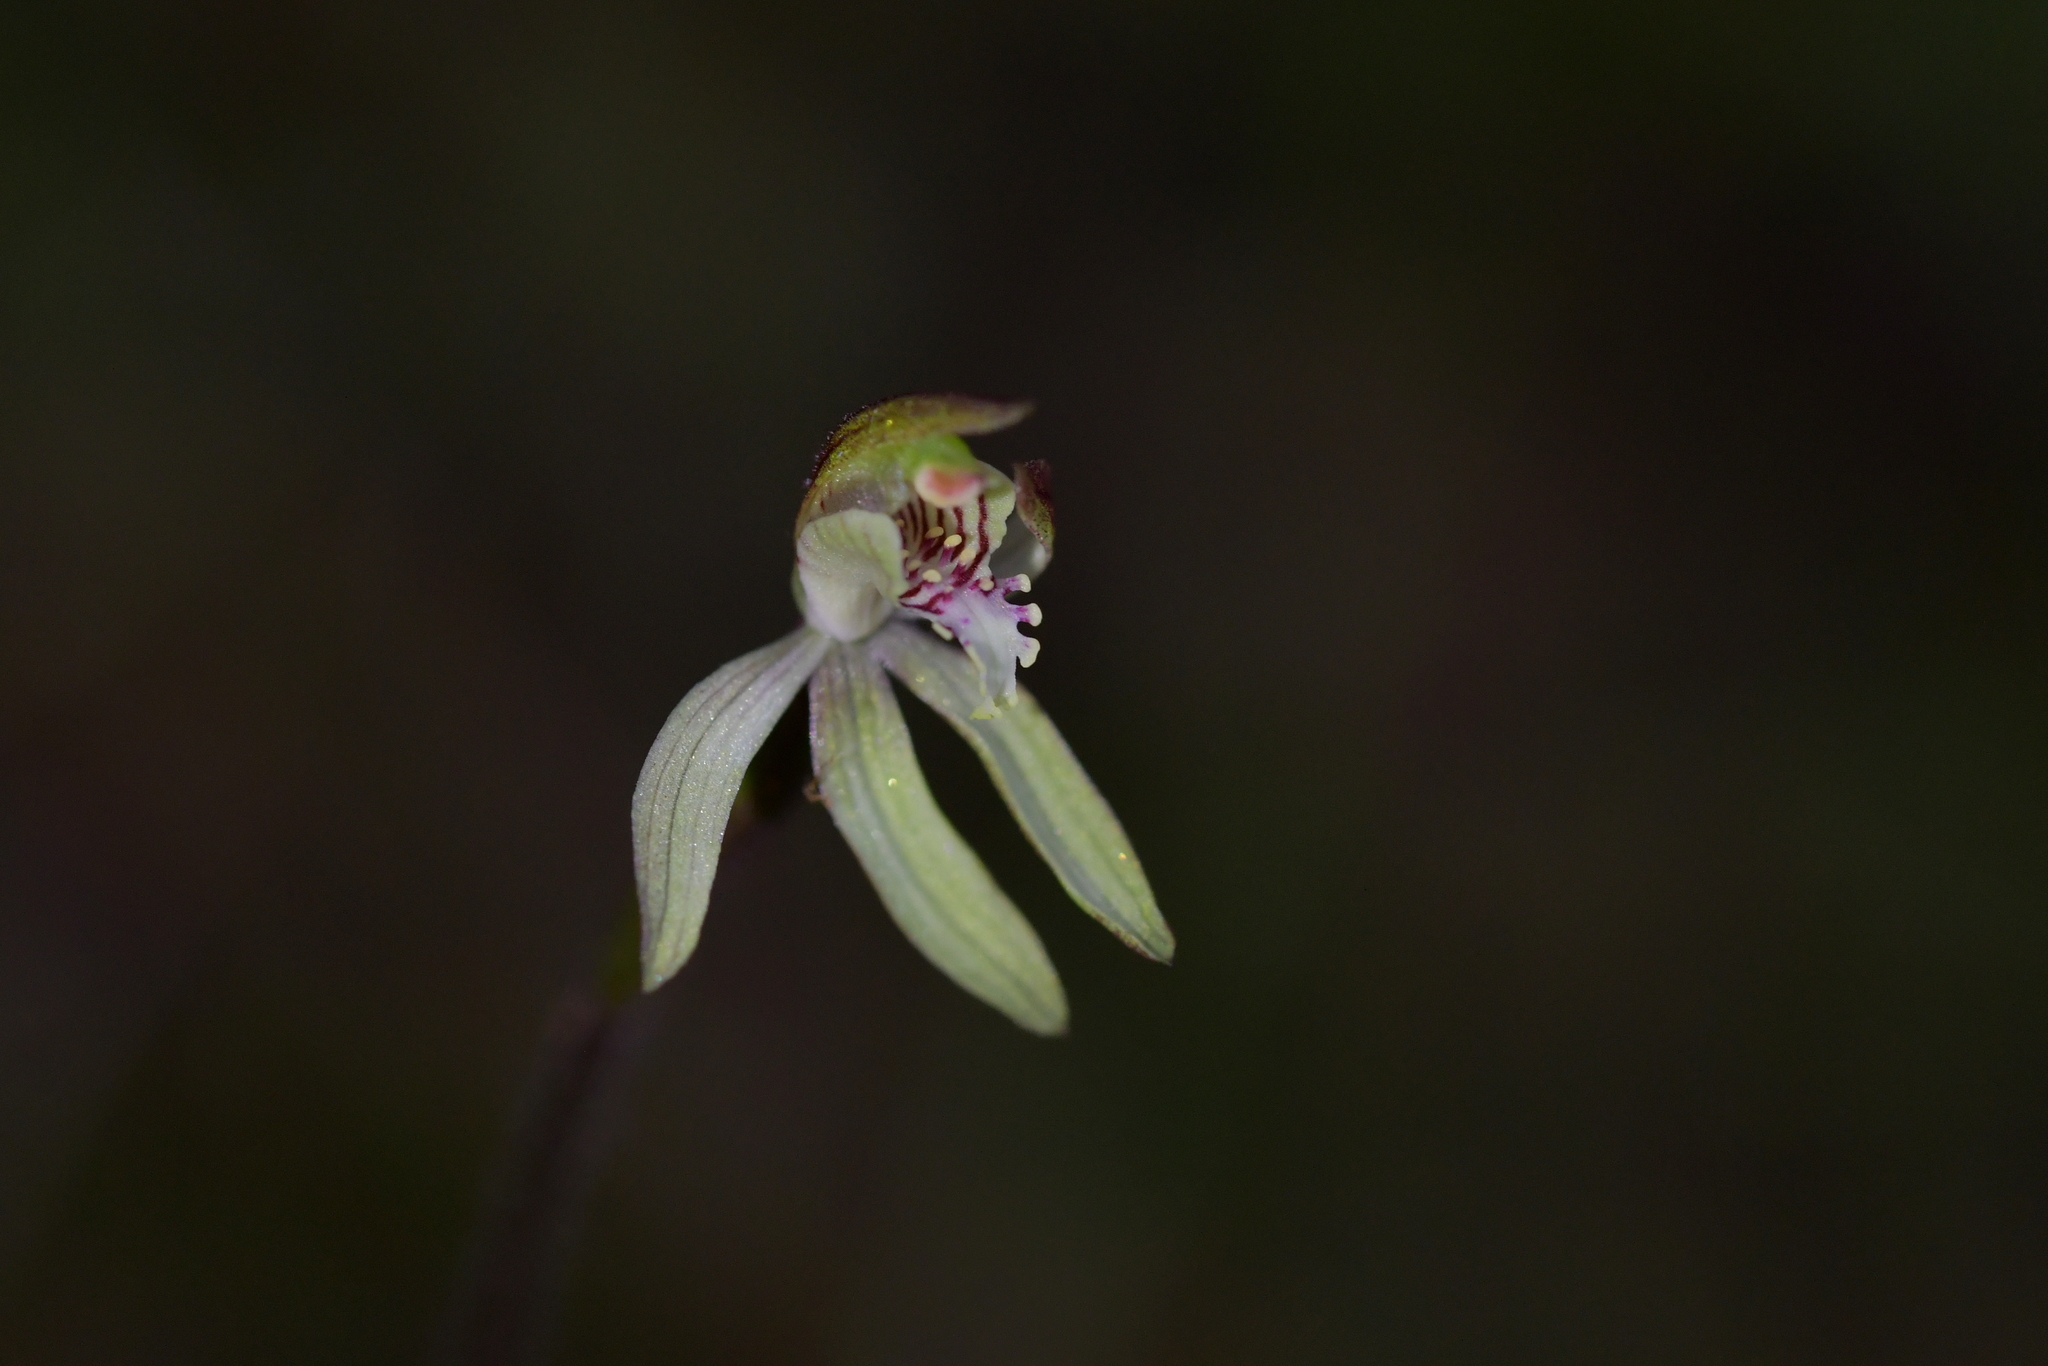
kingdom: Plantae
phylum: Tracheophyta
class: Liliopsida
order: Asparagales
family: Orchidaceae
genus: Caladenia
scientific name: Caladenia chlorostyla
